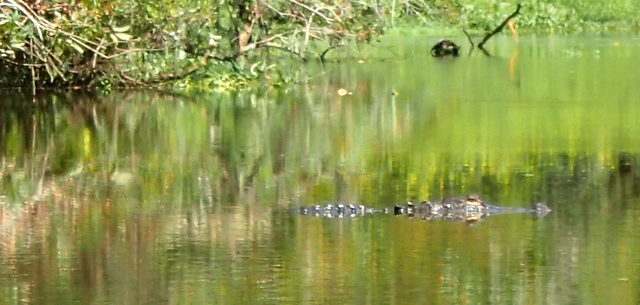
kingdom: Animalia
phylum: Chordata
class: Crocodylia
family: Alligatoridae
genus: Alligator
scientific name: Alligator mississippiensis
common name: American alligator
